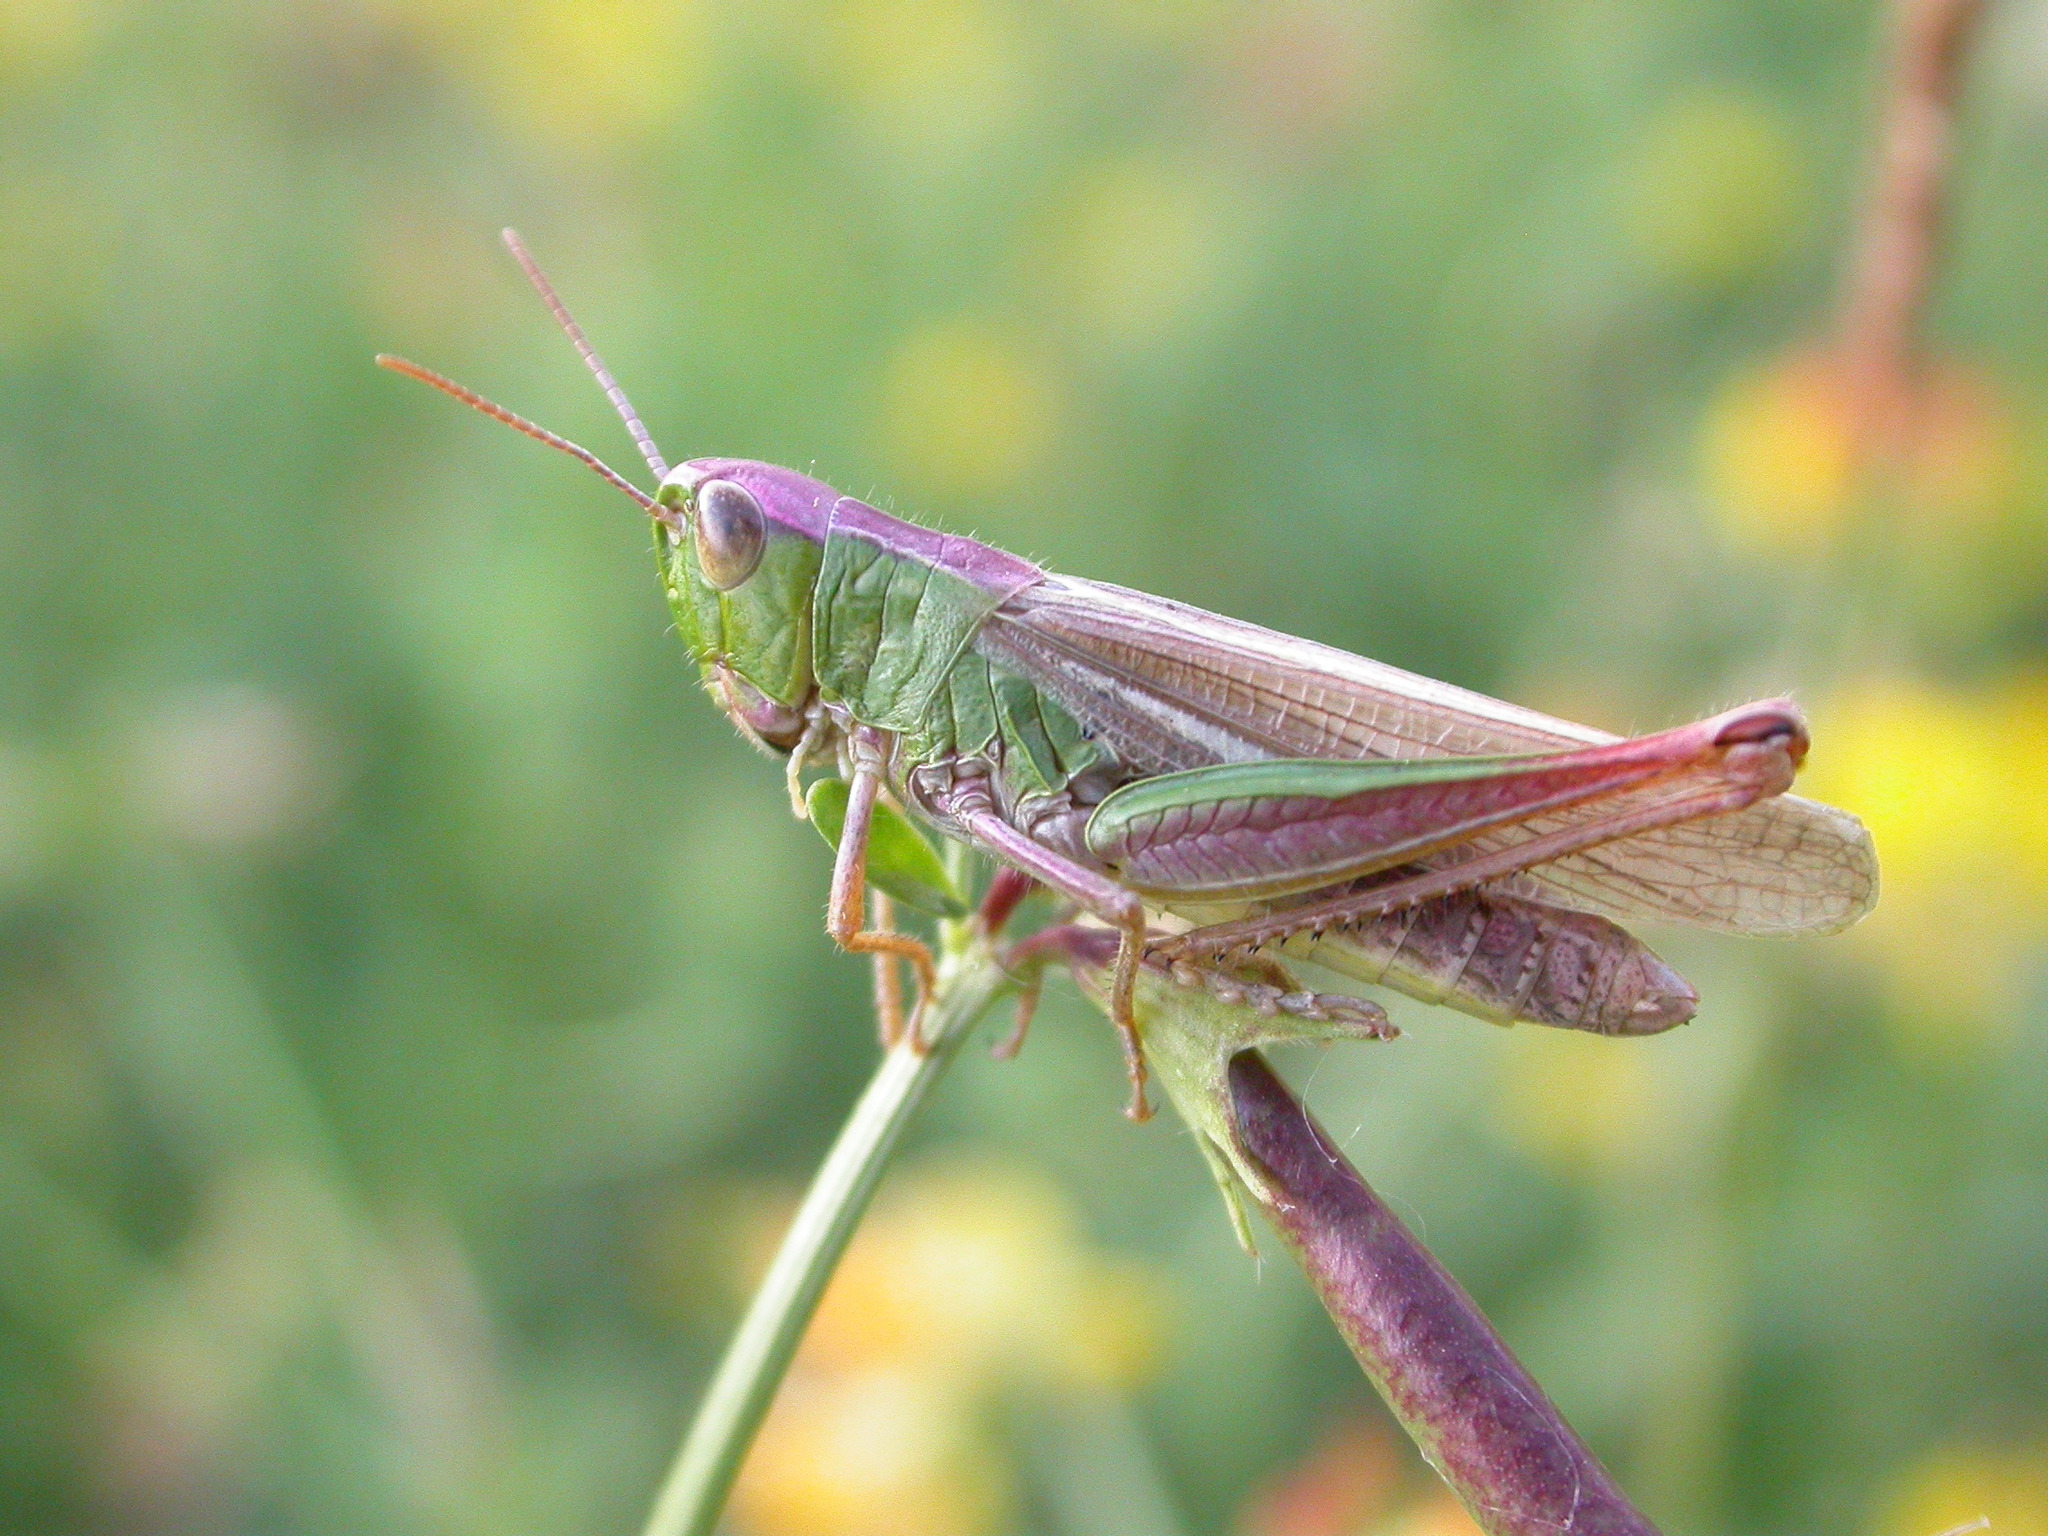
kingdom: Animalia
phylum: Arthropoda
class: Insecta
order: Orthoptera
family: Acrididae
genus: Pseudochorthippus
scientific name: Pseudochorthippus parallelus
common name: Meadow grasshopper
